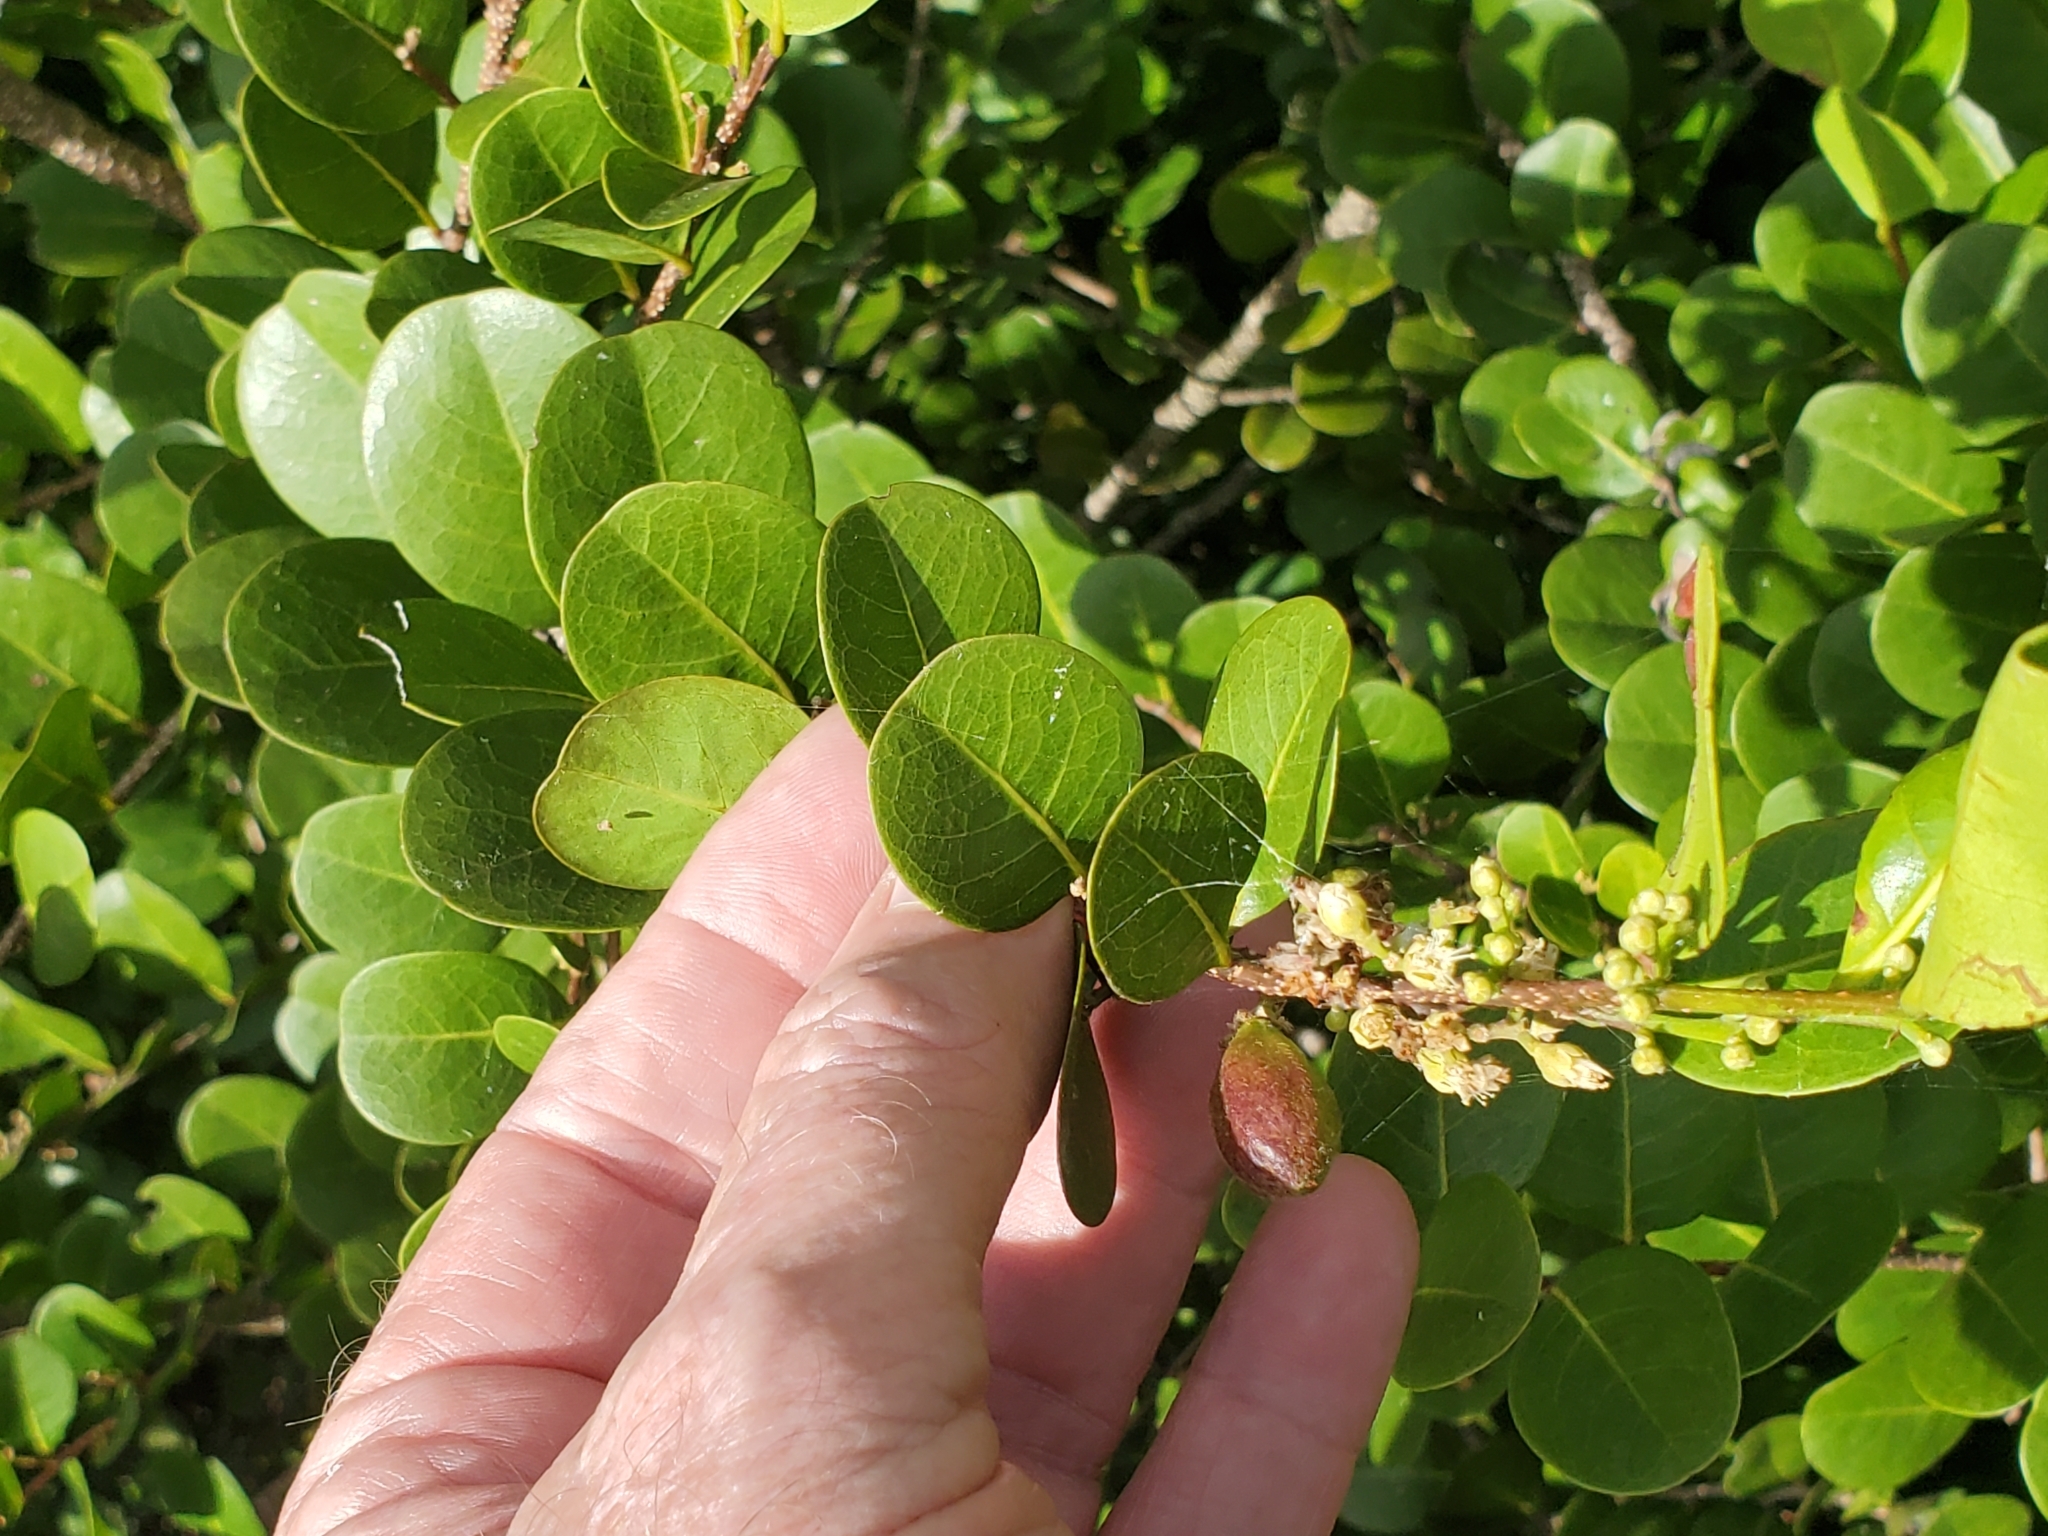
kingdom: Plantae
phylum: Tracheophyta
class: Magnoliopsida
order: Malpighiales
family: Chrysobalanaceae
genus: Chrysobalanus
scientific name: Chrysobalanus icaco
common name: Coco plum
